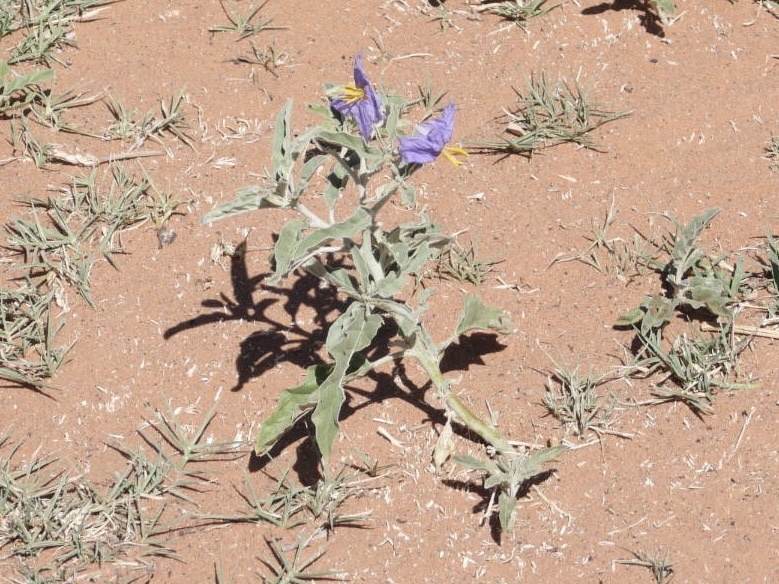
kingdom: Plantae
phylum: Tracheophyta
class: Magnoliopsida
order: Solanales
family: Solanaceae
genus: Solanum
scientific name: Solanum elaeagnifolium
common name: Silverleaf nightshade
